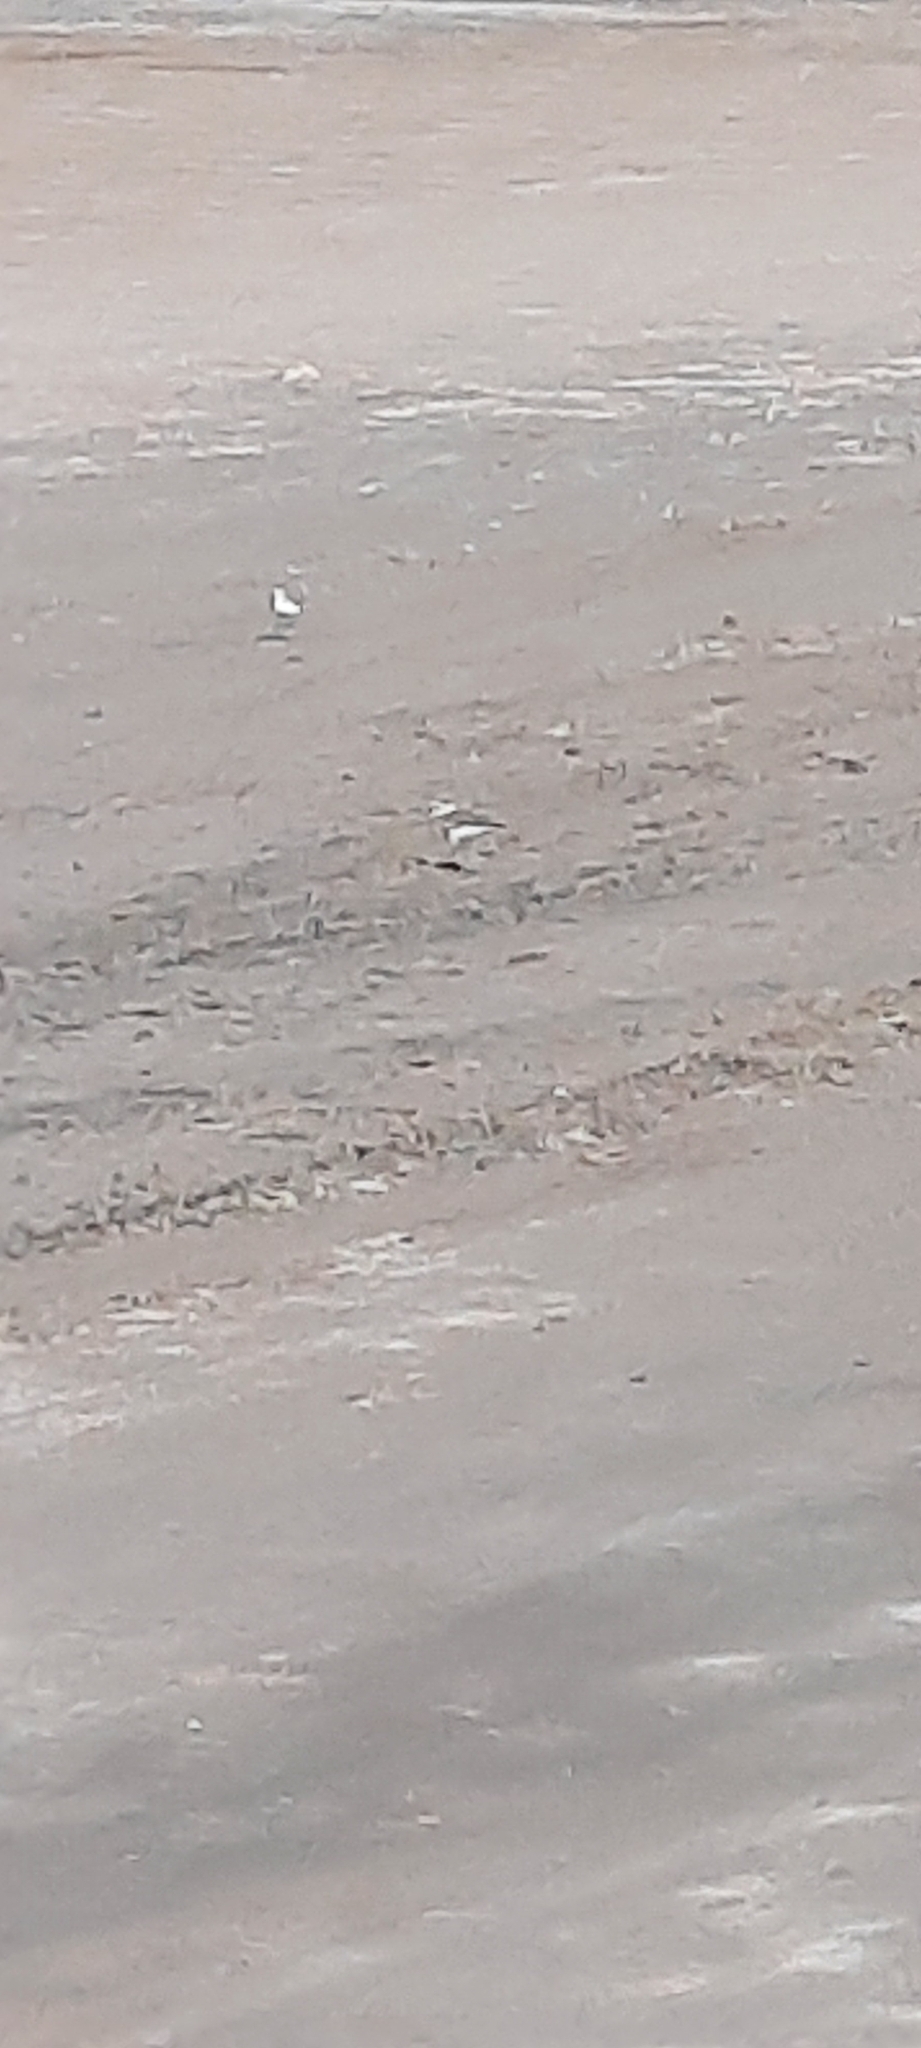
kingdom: Animalia
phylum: Chordata
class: Aves
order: Charadriiformes
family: Charadriidae
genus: Charadrius
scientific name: Charadrius alexandrinus
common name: Kentish plover
